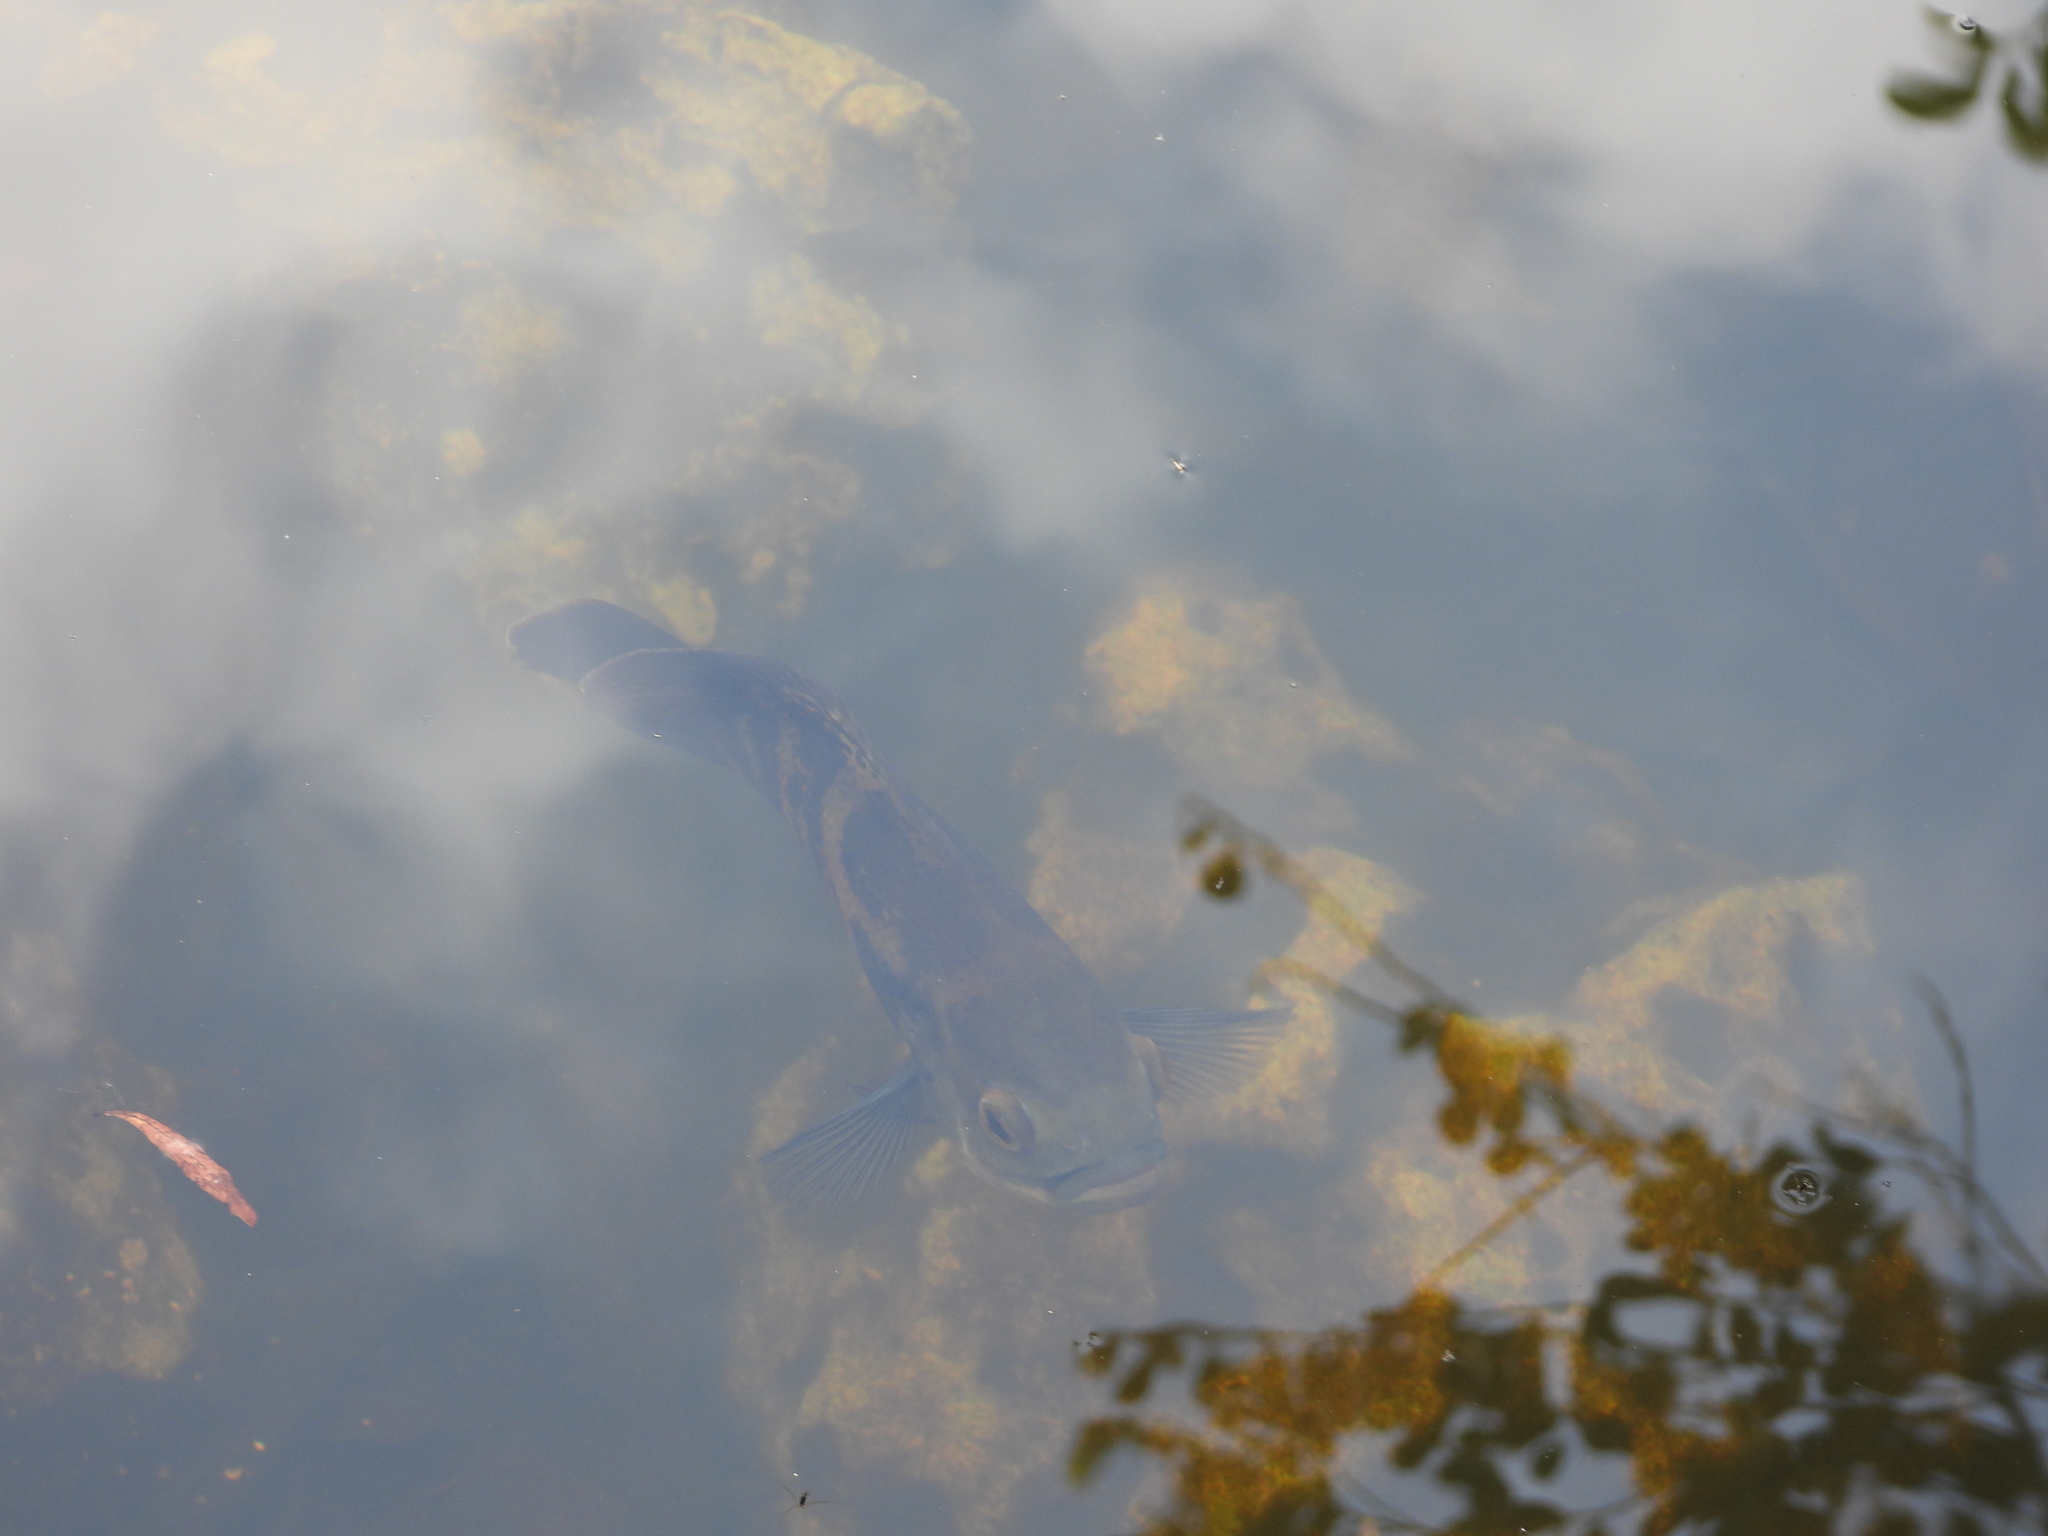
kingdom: Animalia
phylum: Chordata
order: Perciformes
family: Cichlidae
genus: Astronotus
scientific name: Astronotus ocellatus
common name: Oscar
